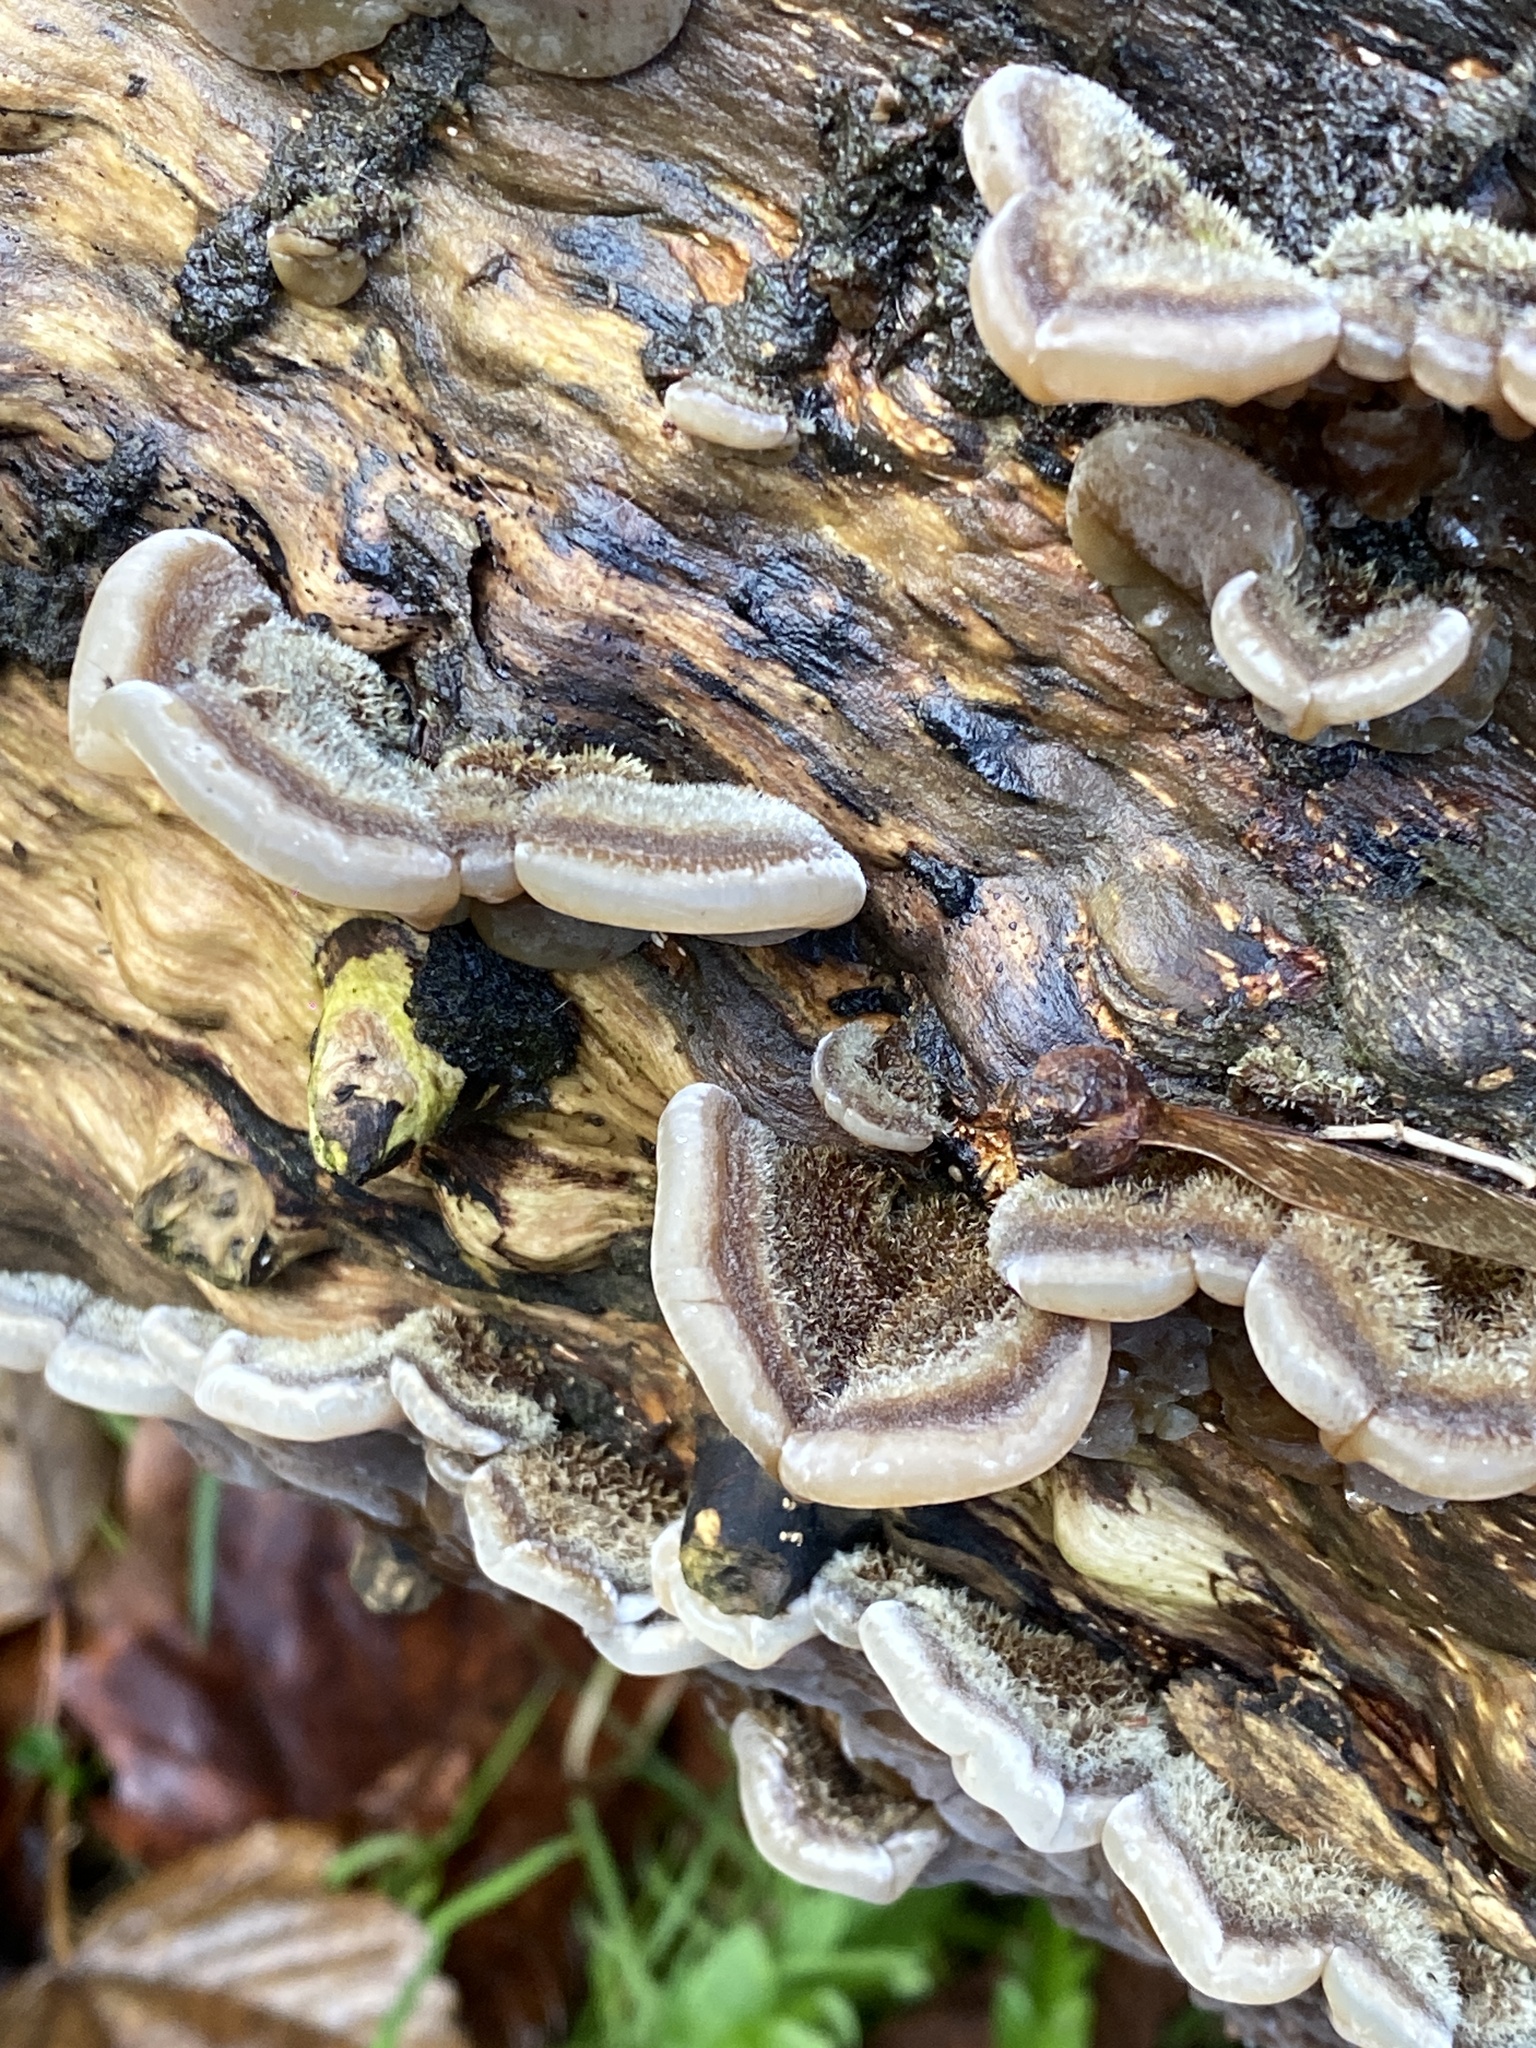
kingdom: Fungi
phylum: Basidiomycota
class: Agaricomycetes
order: Auriculariales
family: Auriculariaceae
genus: Auricularia
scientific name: Auricularia mesenterica
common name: Tripe fungus
